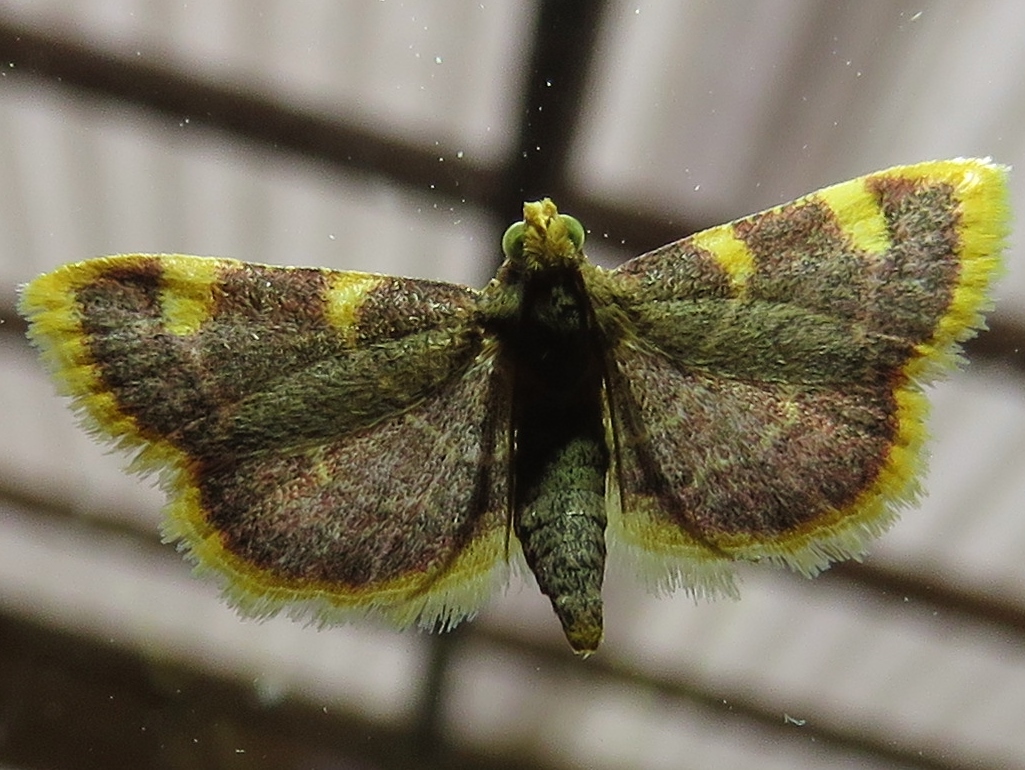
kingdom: Animalia
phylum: Arthropoda
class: Insecta
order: Lepidoptera
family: Pyralidae
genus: Hypsopygia
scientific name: Hypsopygia costalis
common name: Gold triangle
